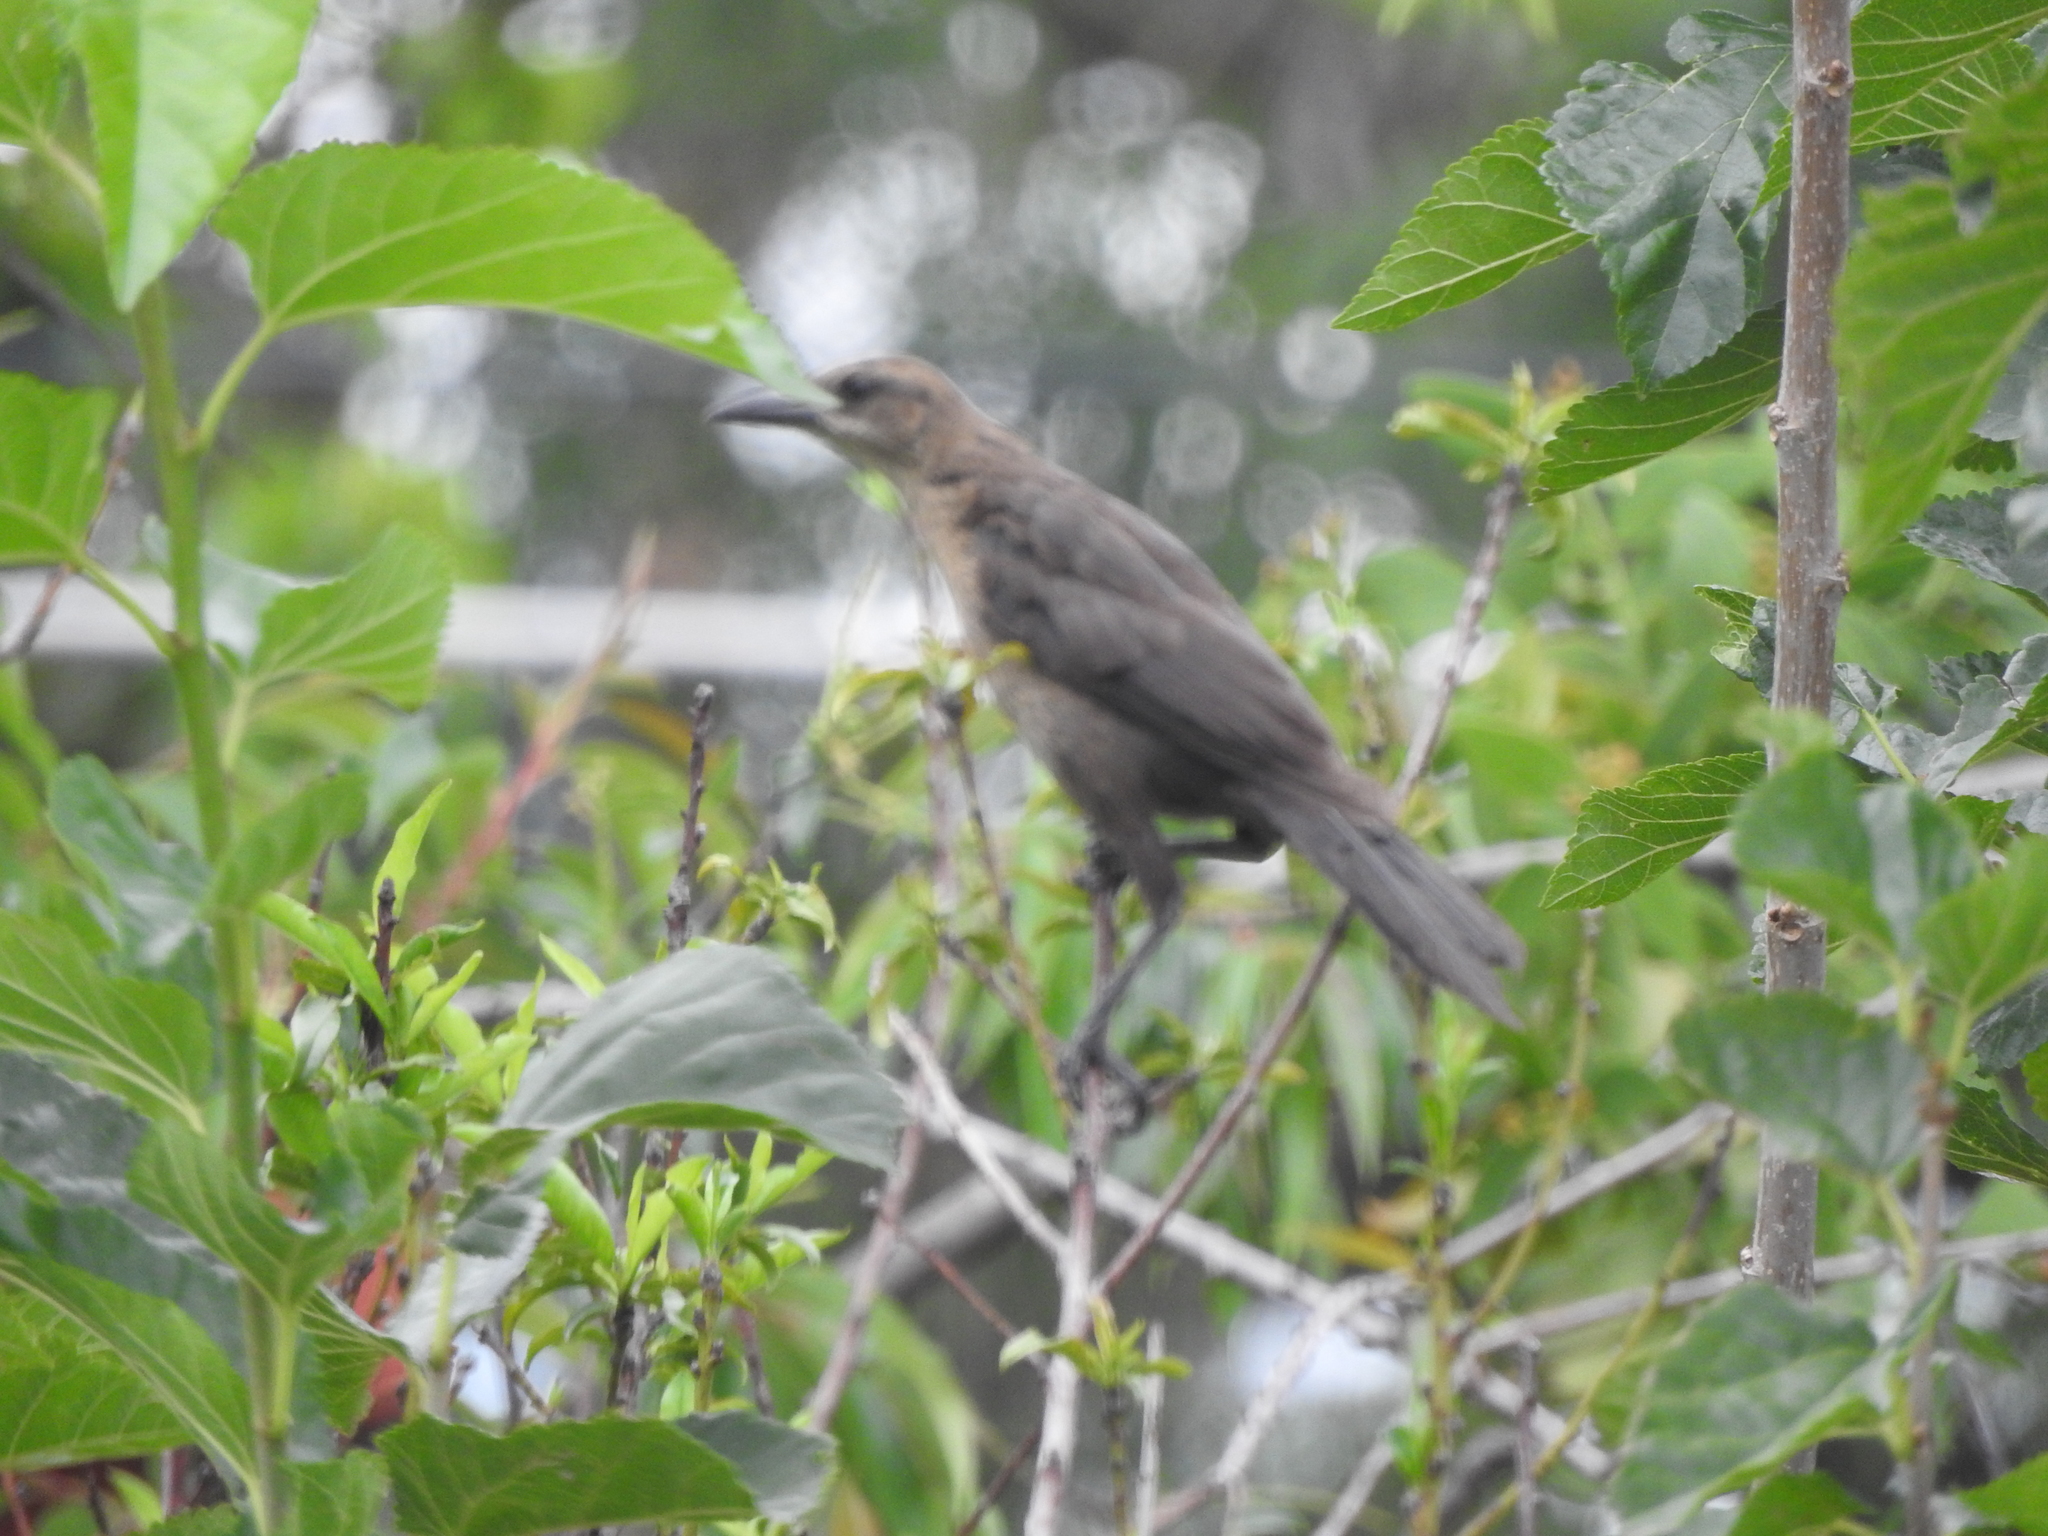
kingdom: Animalia
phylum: Chordata
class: Aves
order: Passeriformes
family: Icteridae
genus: Quiscalus
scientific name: Quiscalus mexicanus
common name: Great-tailed grackle
